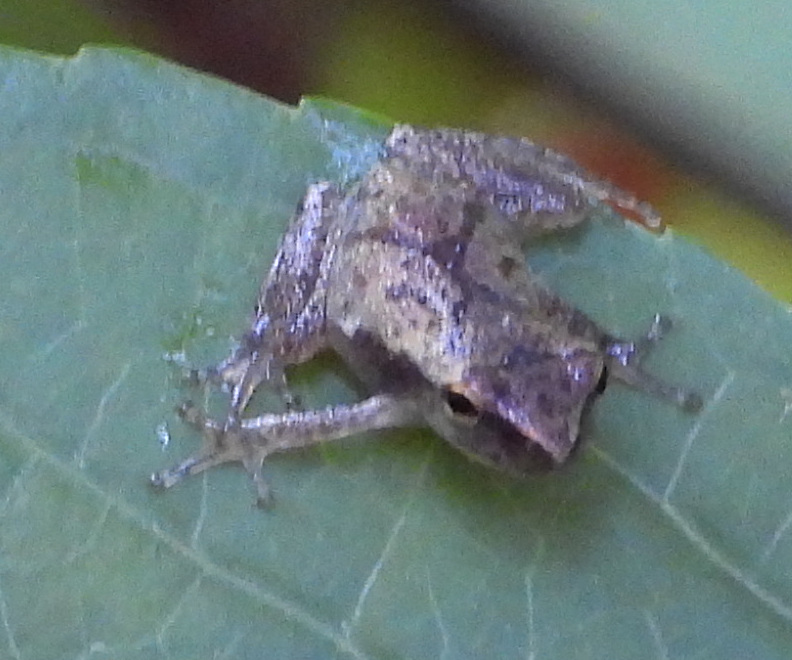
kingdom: Animalia
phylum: Chordata
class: Amphibia
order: Anura
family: Hylidae
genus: Pseudacris
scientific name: Pseudacris crucifer
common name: Spring peeper
